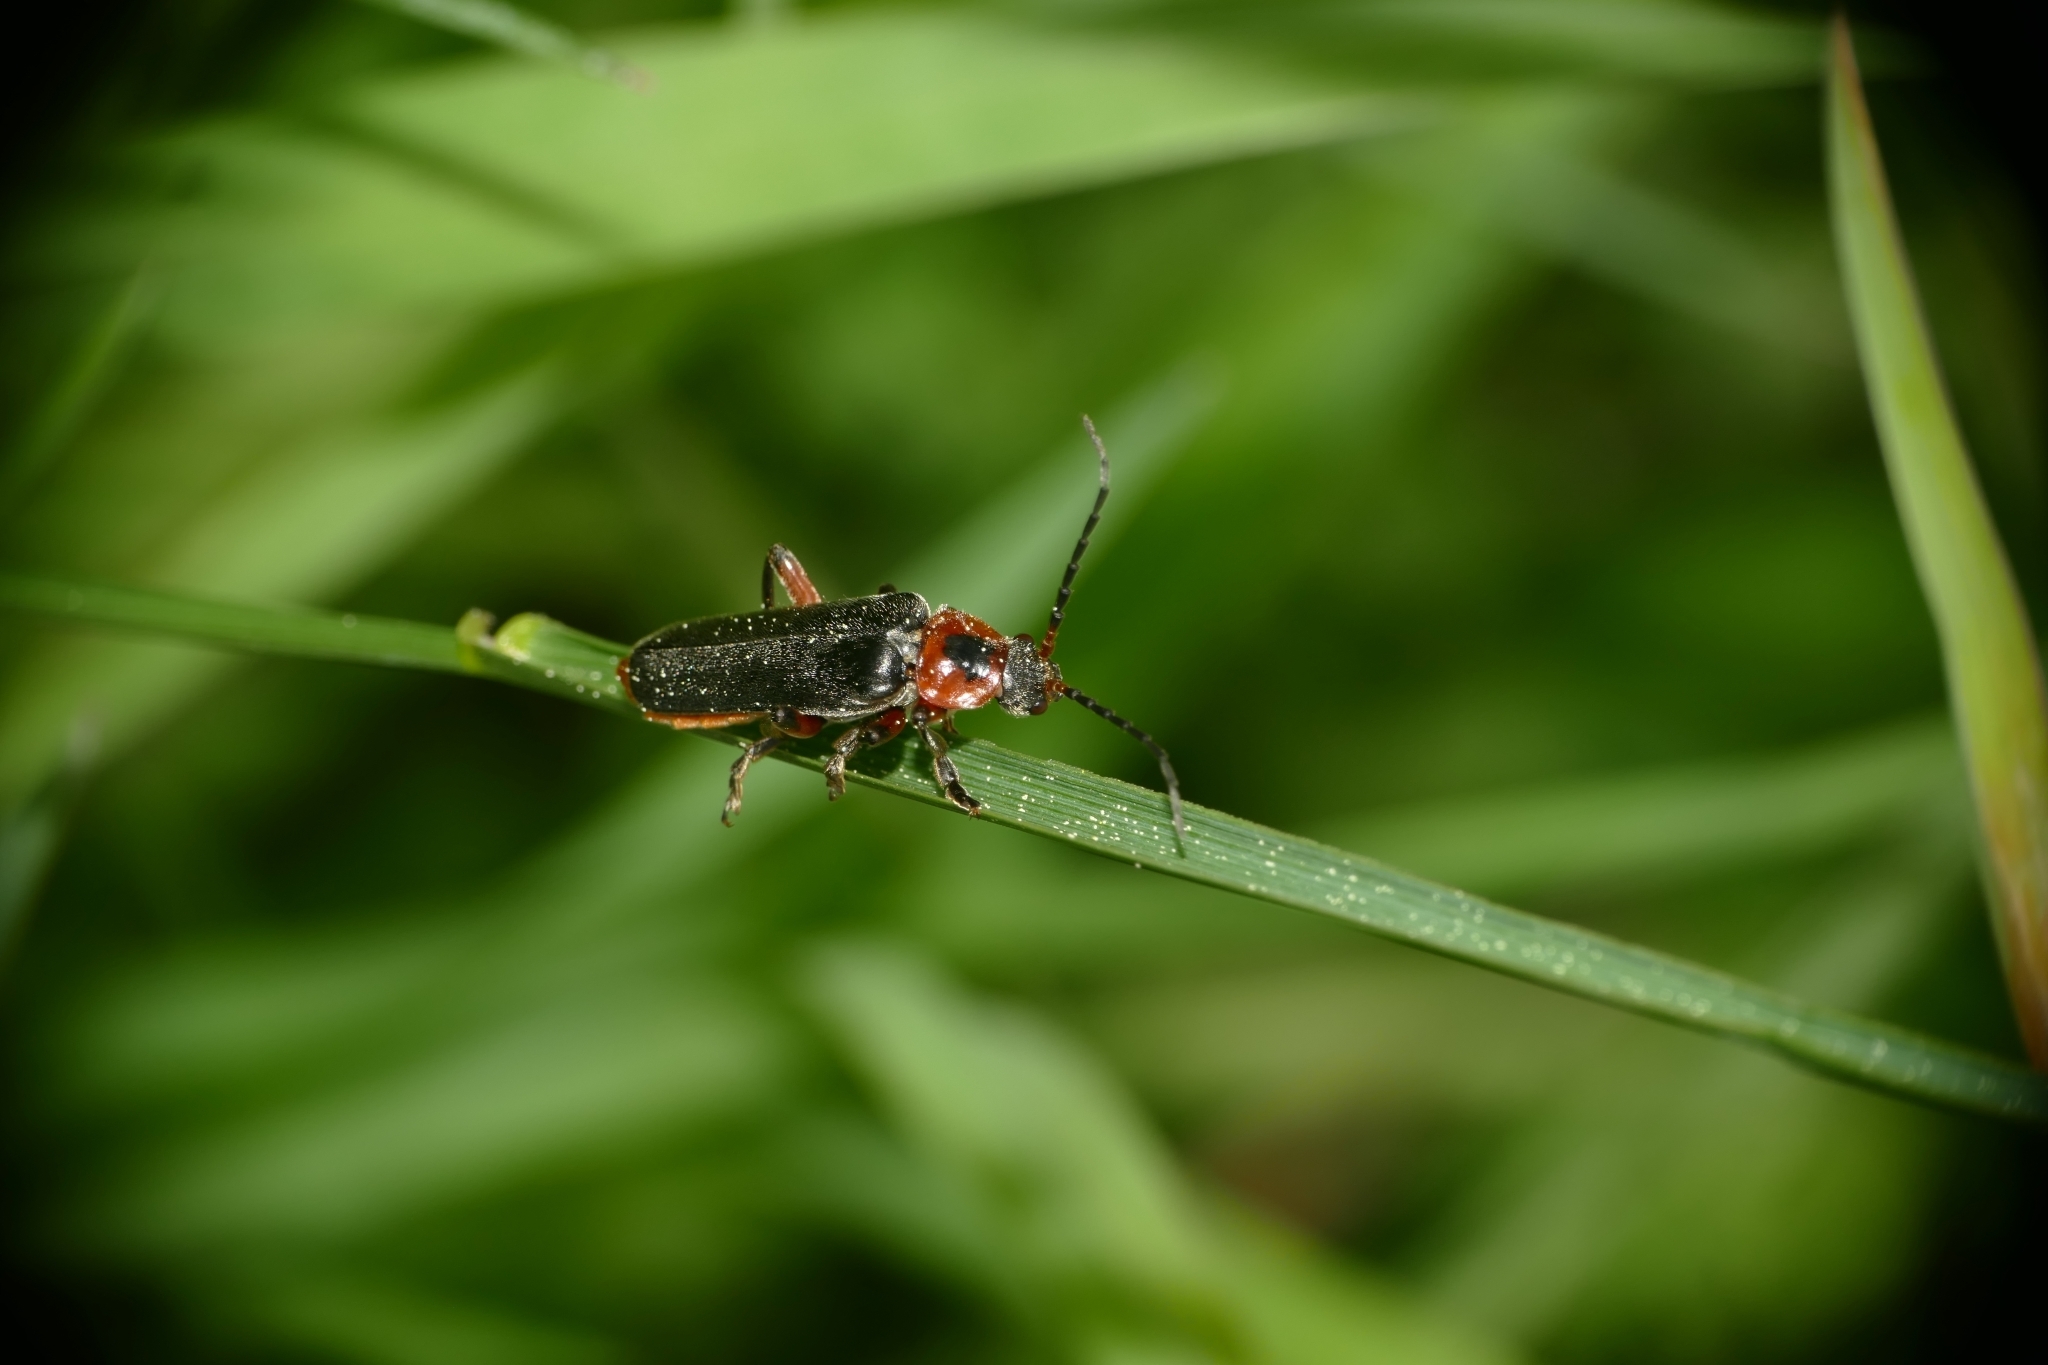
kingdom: Animalia
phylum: Arthropoda
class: Insecta
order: Coleoptera
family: Cantharidae
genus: Cantharis
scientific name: Cantharis rustica
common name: Soldier beetle
